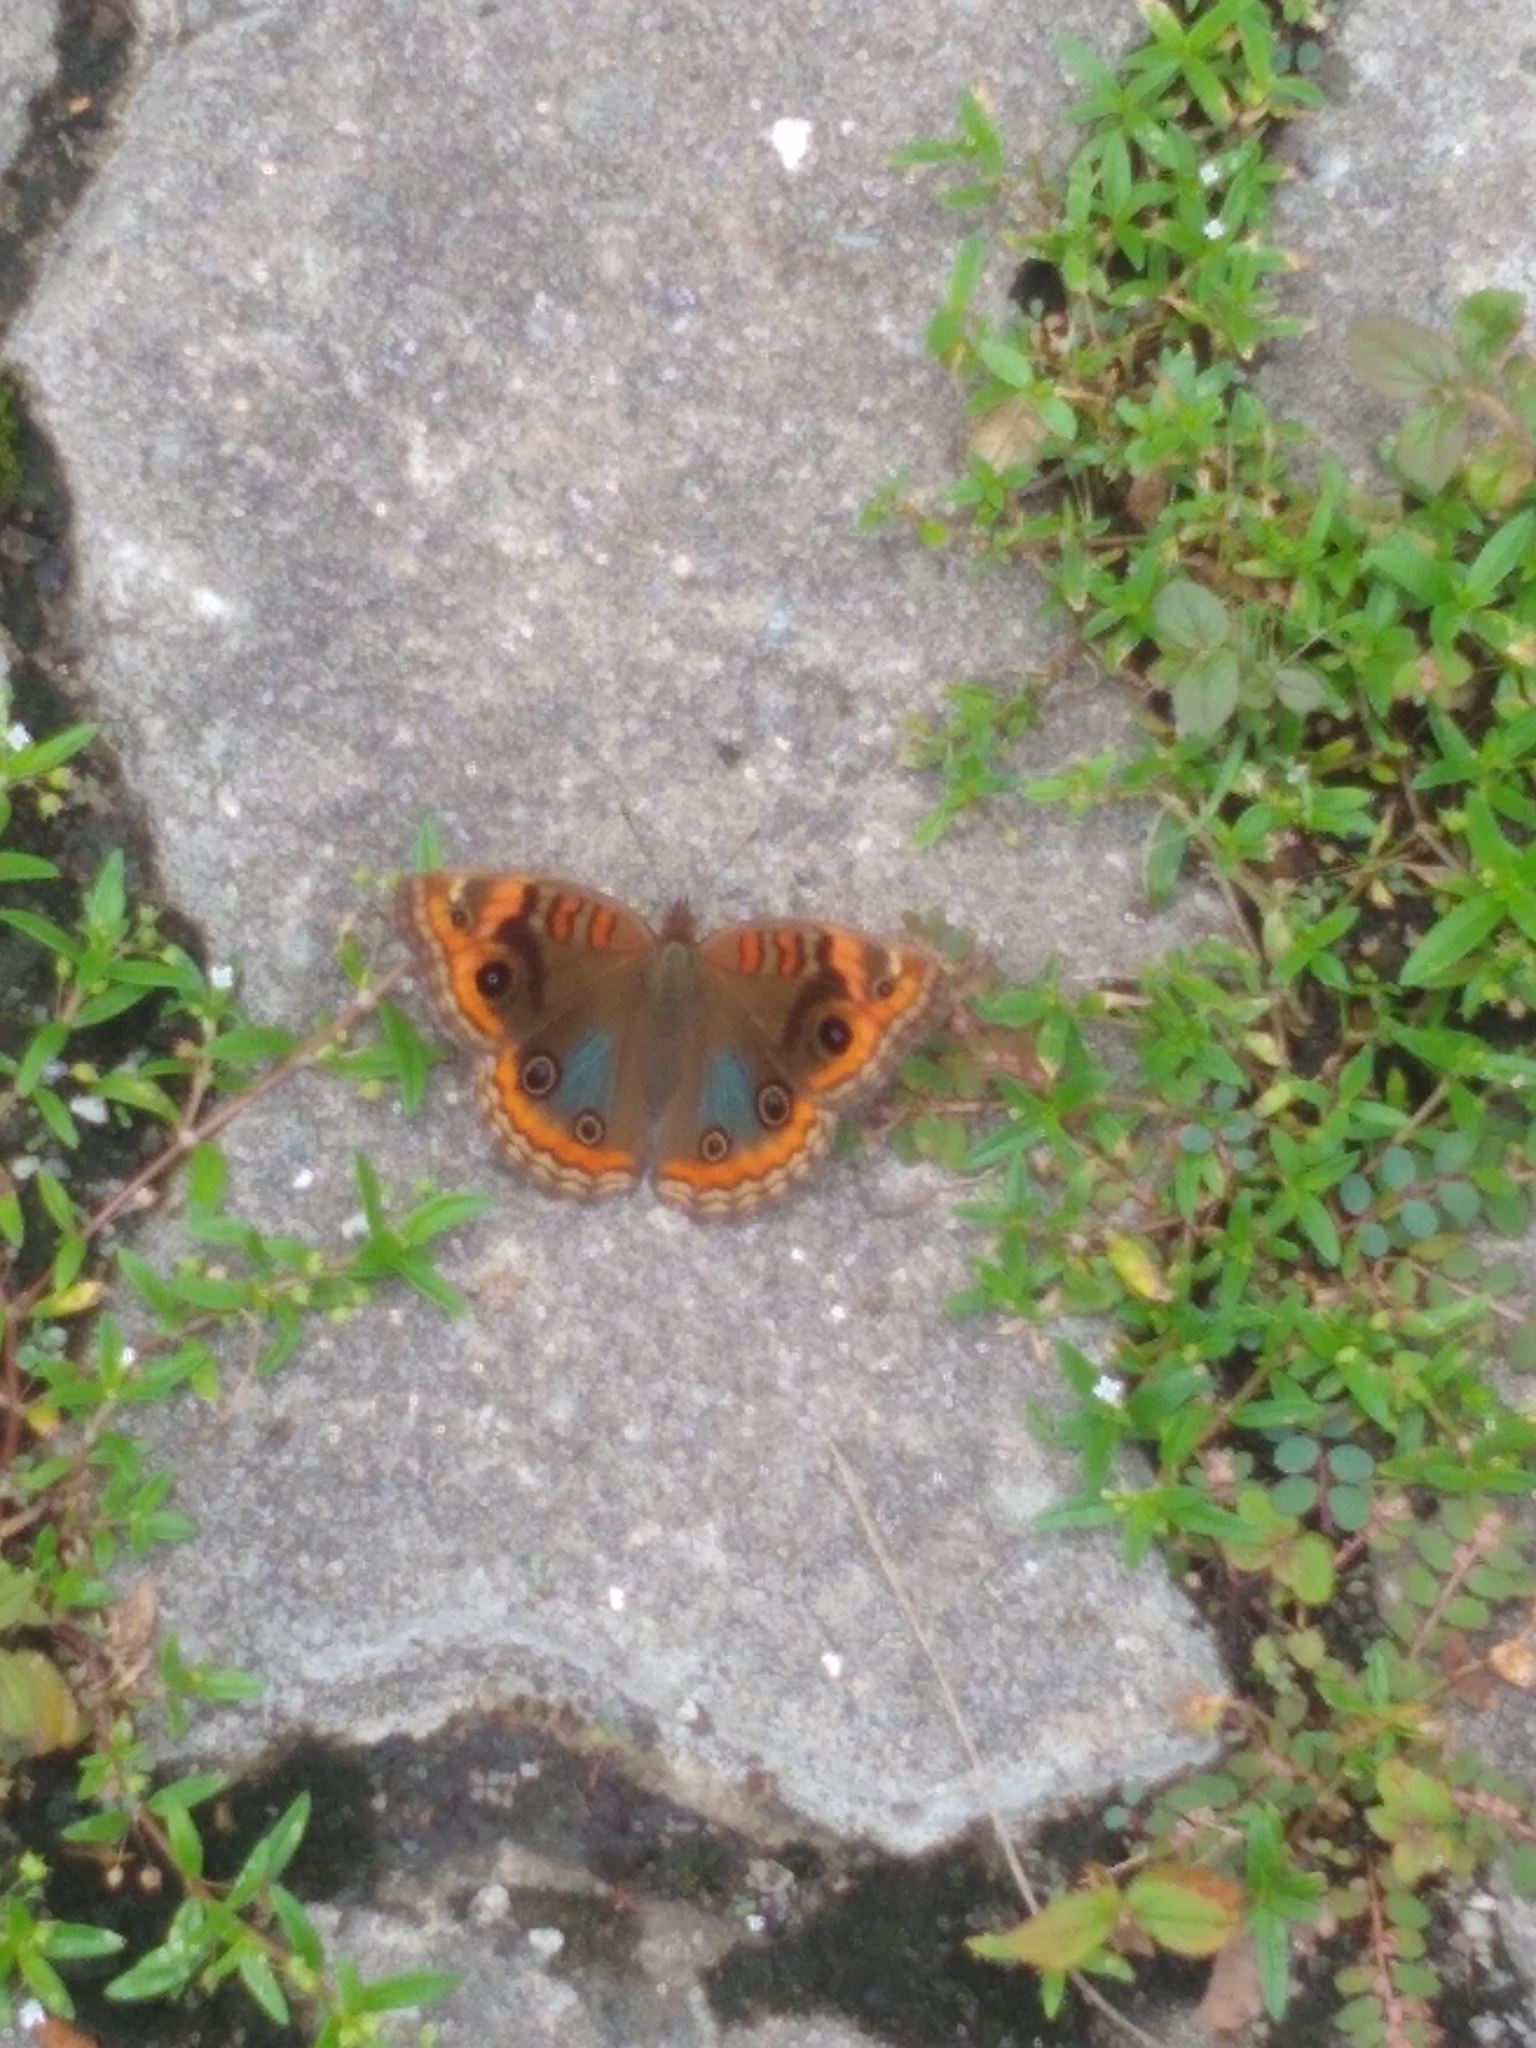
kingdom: Animalia
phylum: Arthropoda
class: Insecta
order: Lepidoptera
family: Nymphalidae
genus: Junonia
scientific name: Junonia evarete
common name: Black mangrove buckeye
